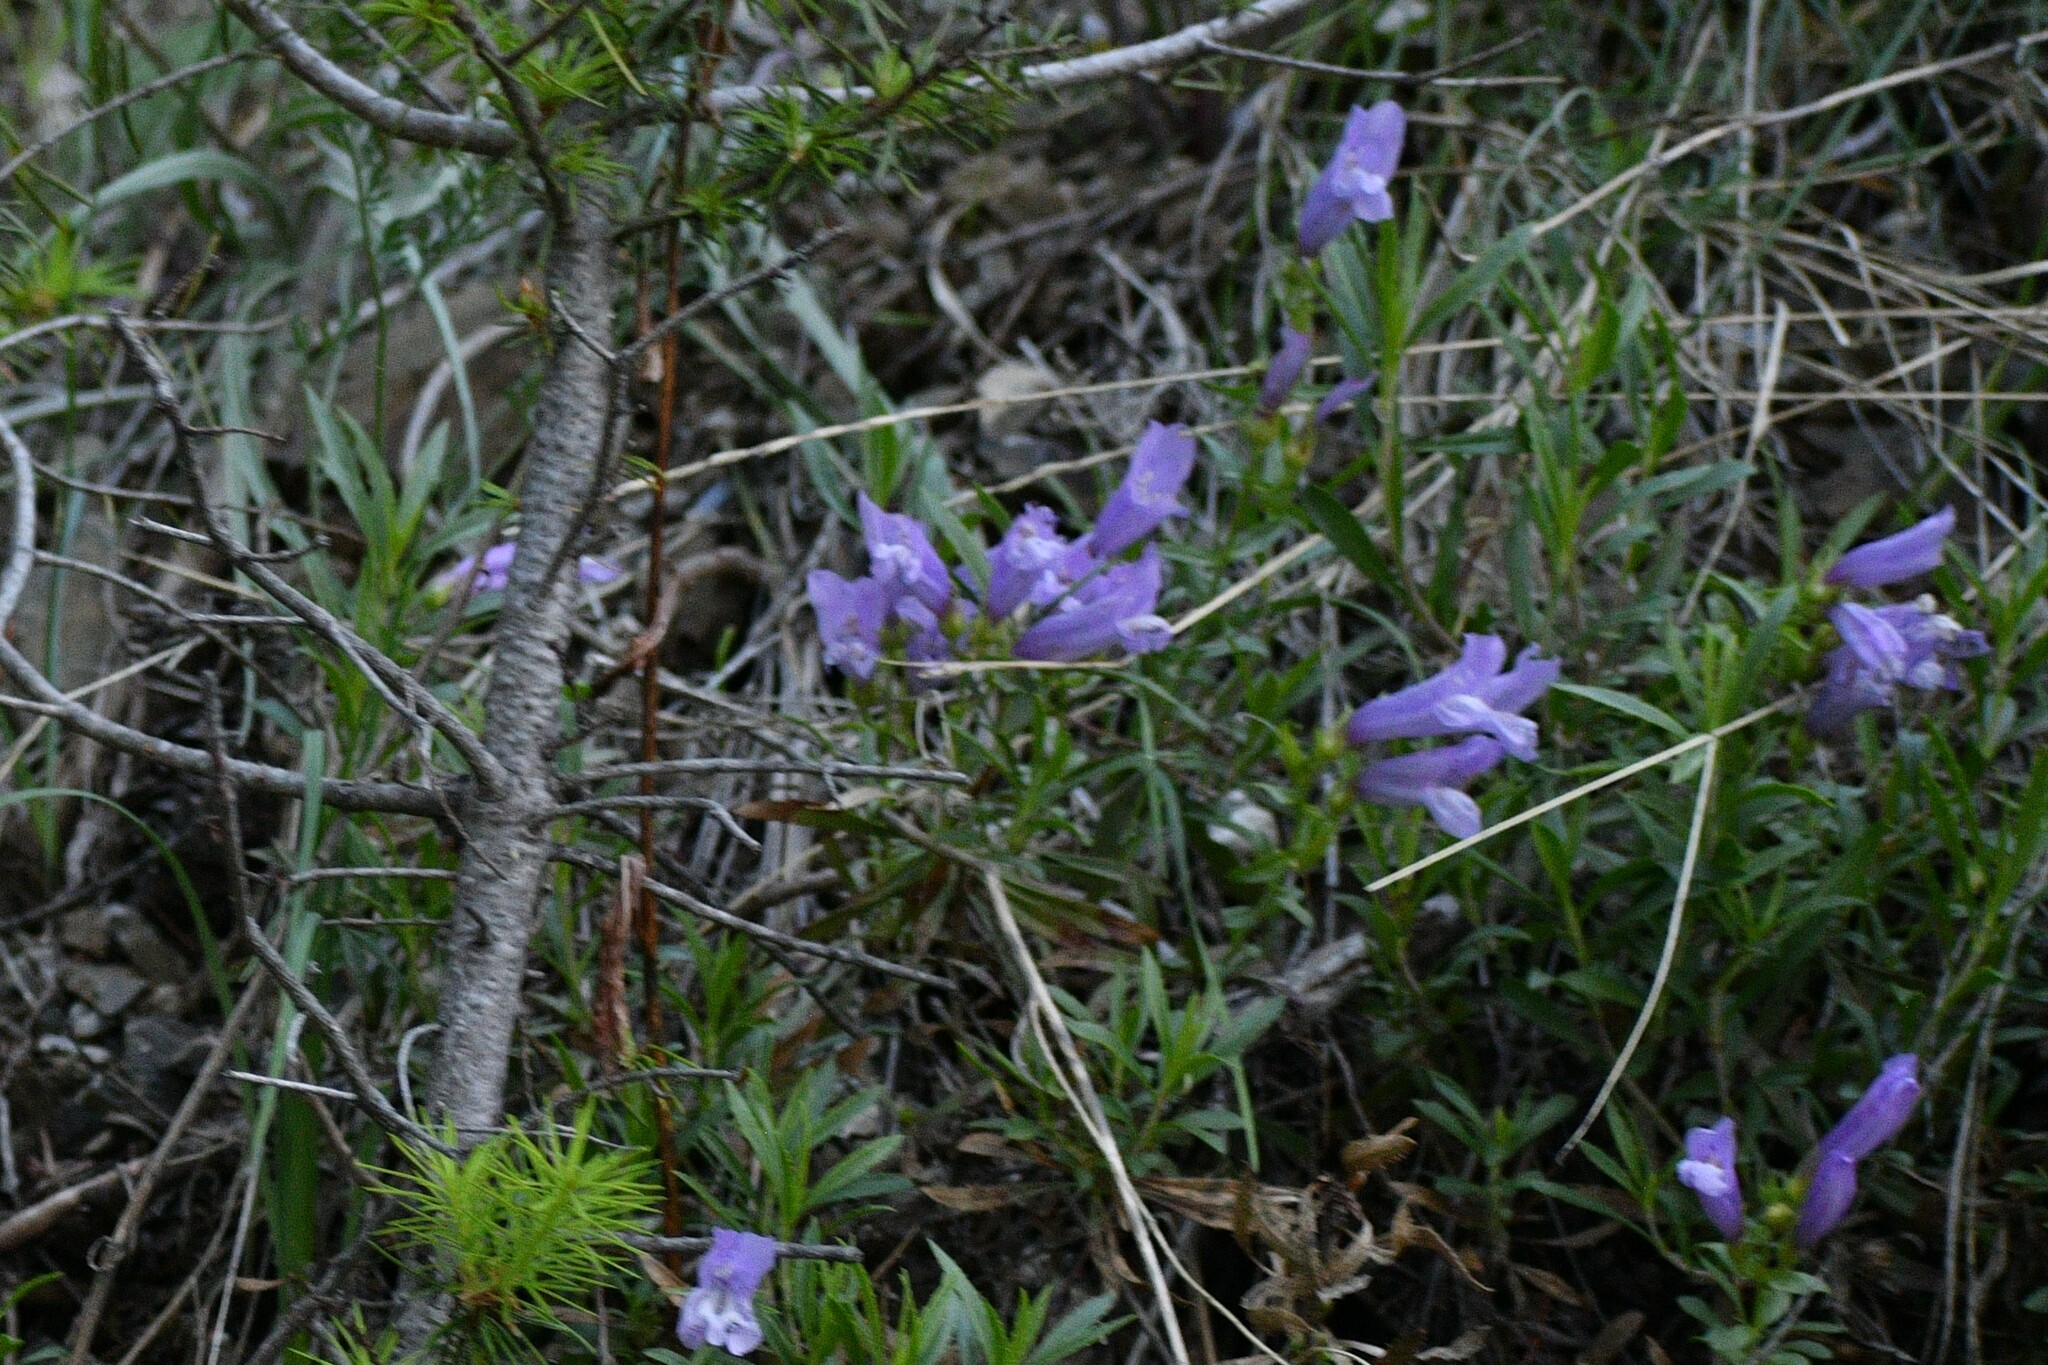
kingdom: Plantae
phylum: Tracheophyta
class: Magnoliopsida
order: Lamiales
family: Plantaginaceae
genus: Penstemon
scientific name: Penstemon fruticosus
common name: Bush penstemon
